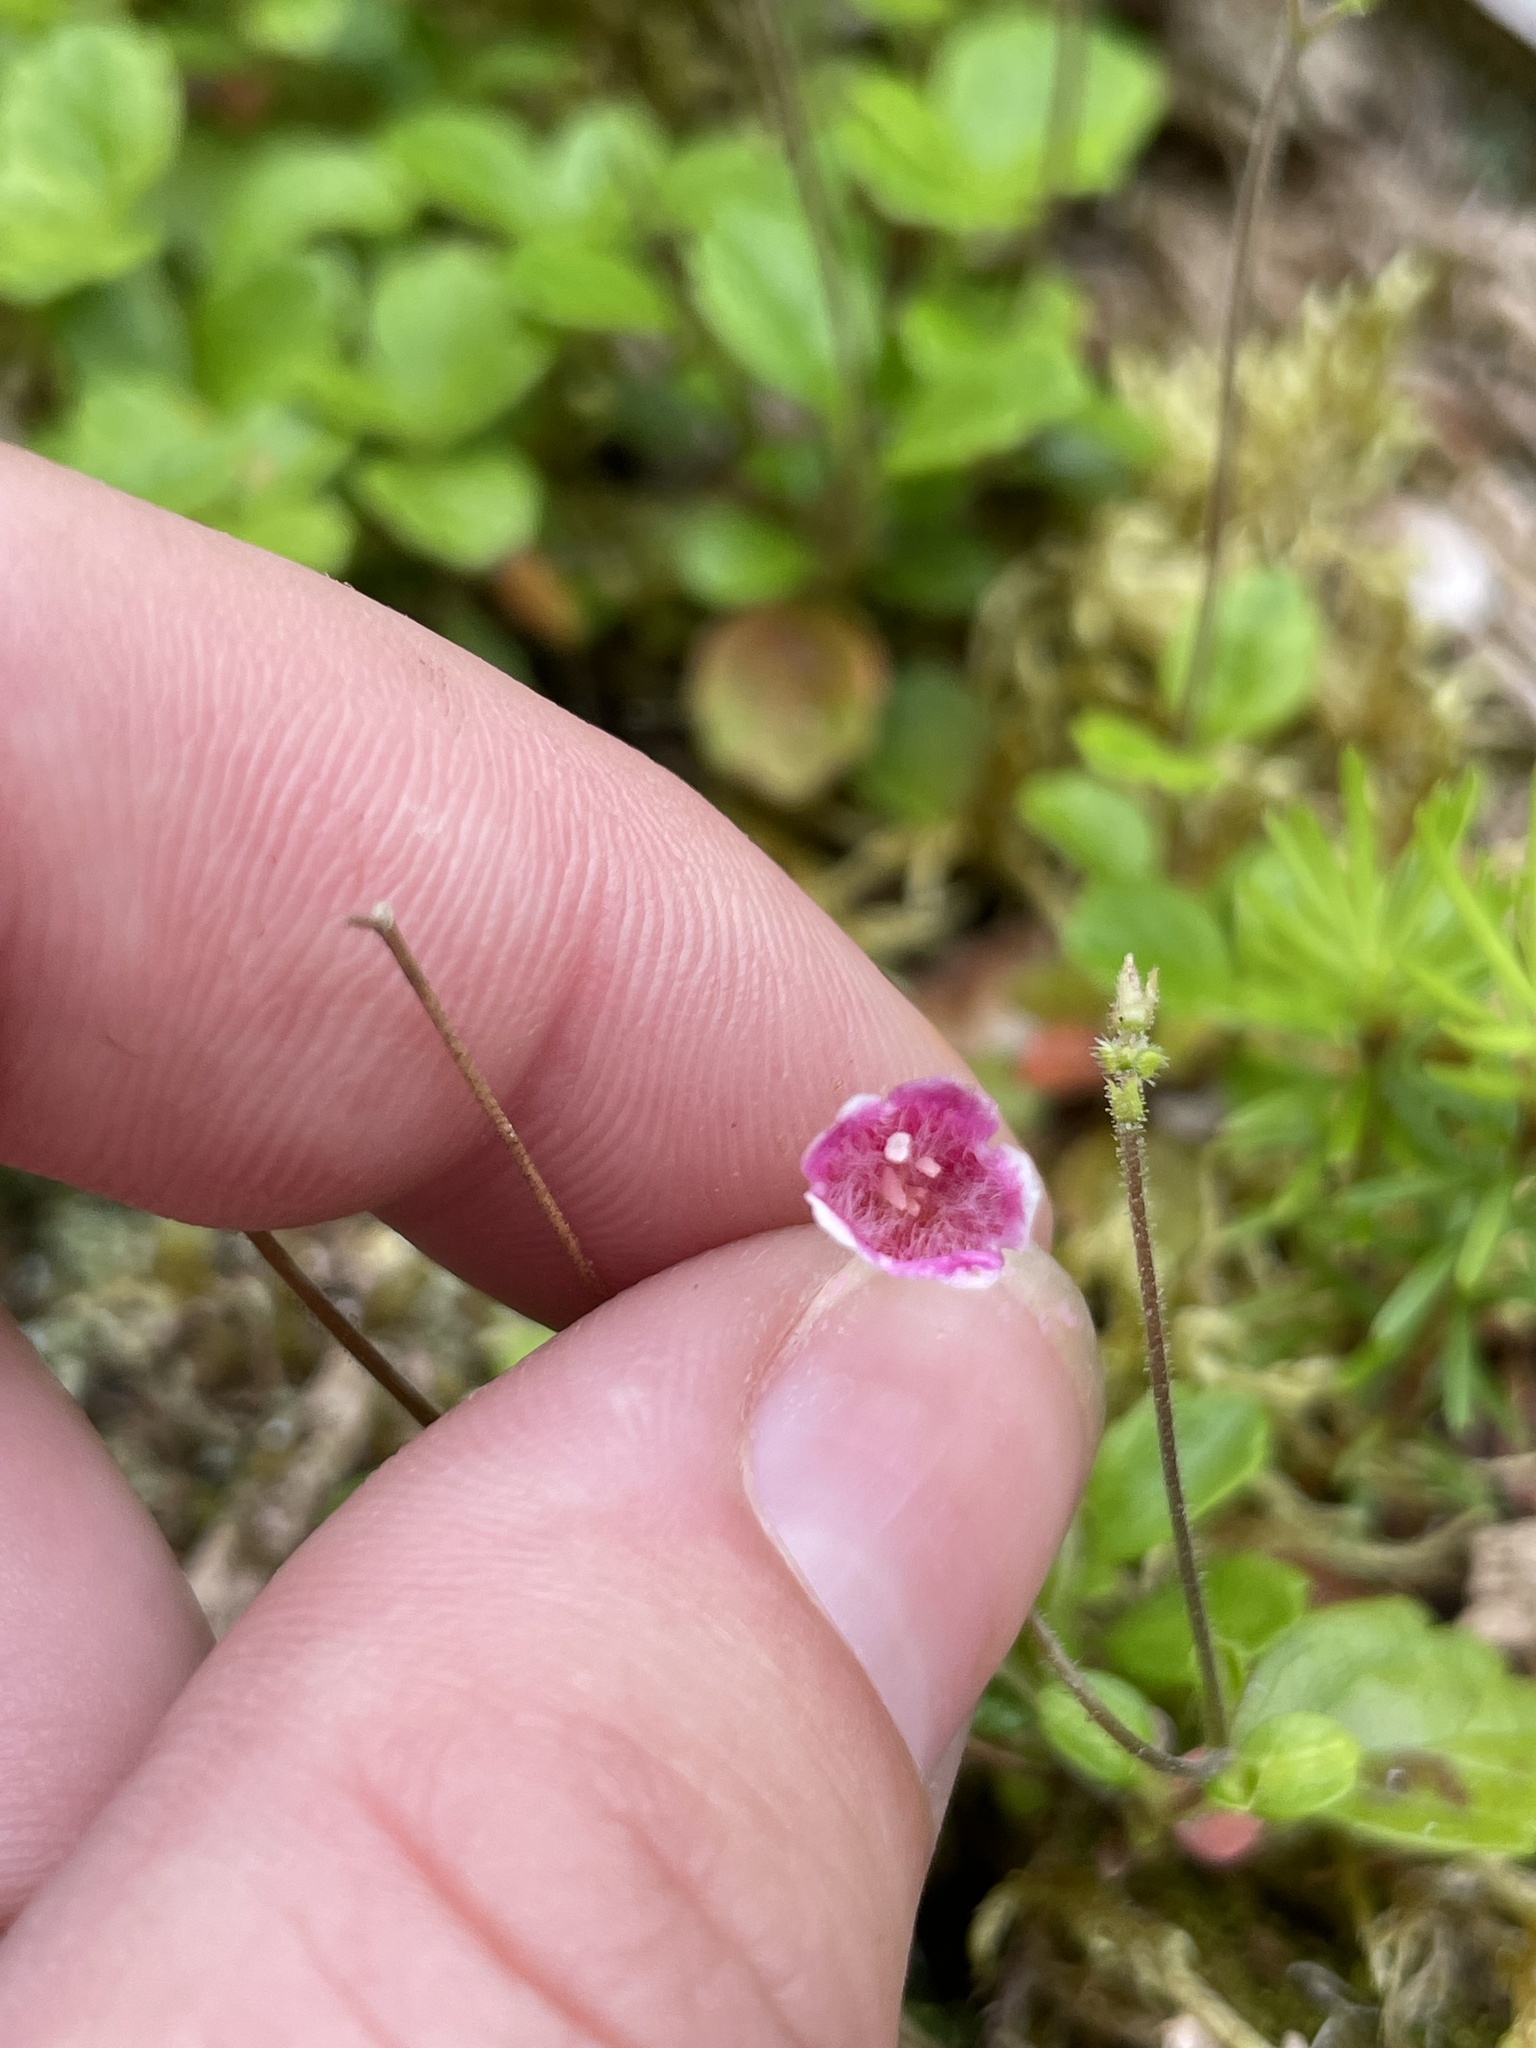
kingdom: Plantae
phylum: Tracheophyta
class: Magnoliopsida
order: Dipsacales
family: Caprifoliaceae
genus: Linnaea
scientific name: Linnaea borealis
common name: Twinflower
